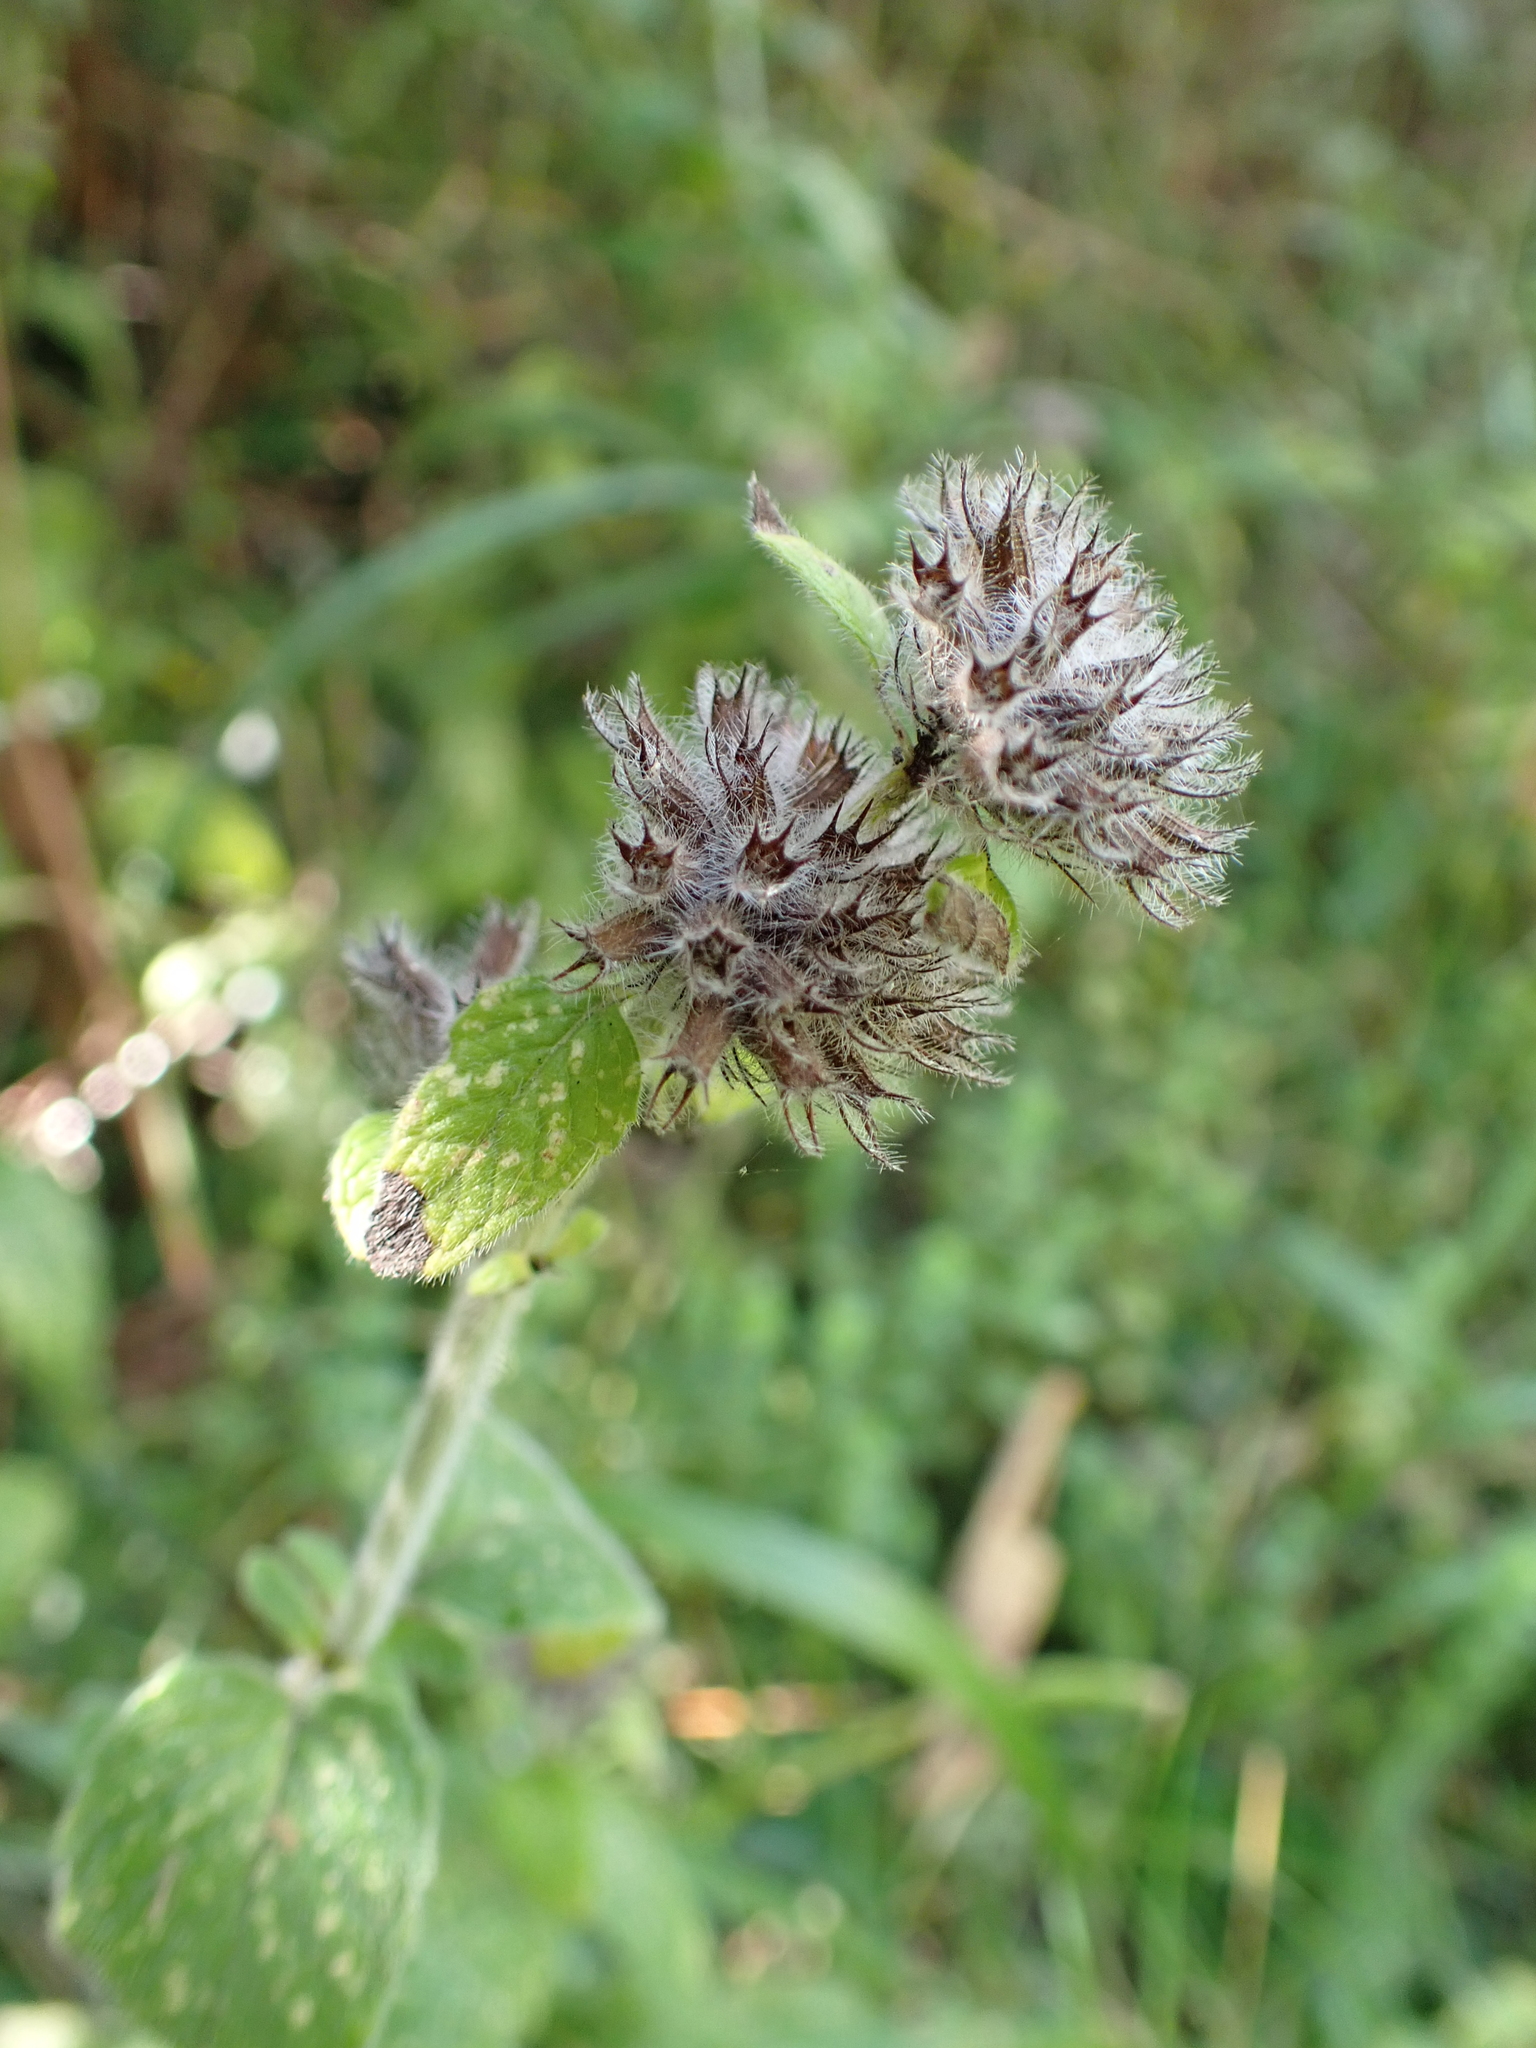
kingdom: Plantae
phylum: Tracheophyta
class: Magnoliopsida
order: Lamiales
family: Lamiaceae
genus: Clinopodium
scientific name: Clinopodium vulgare
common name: Wild basil
